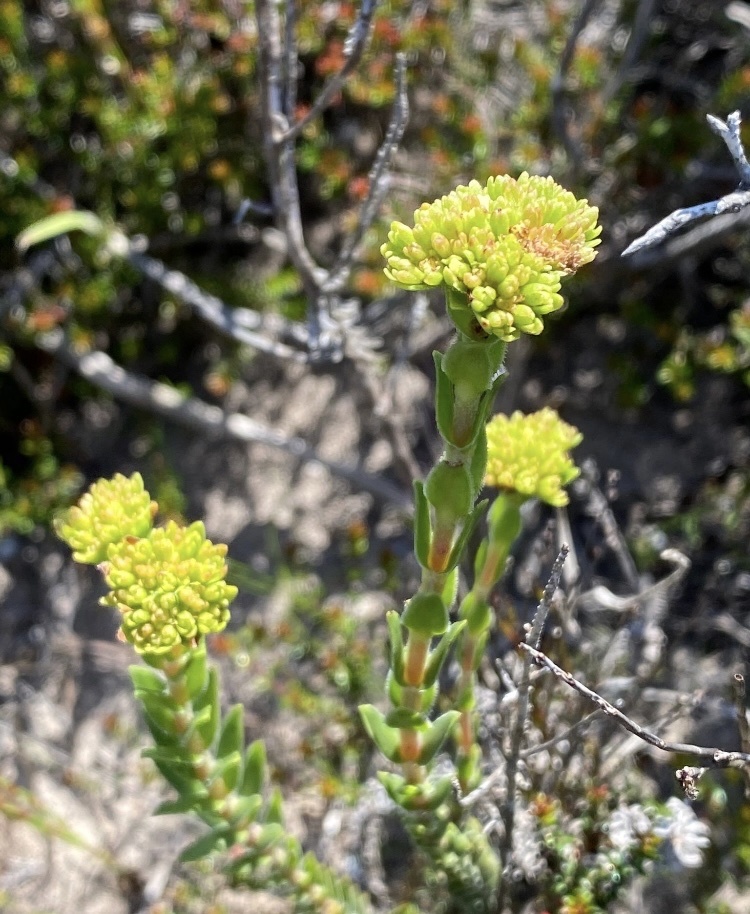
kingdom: Plantae
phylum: Tracheophyta
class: Magnoliopsida
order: Saxifragales
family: Crassulaceae
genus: Crassula
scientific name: Crassula subulata
